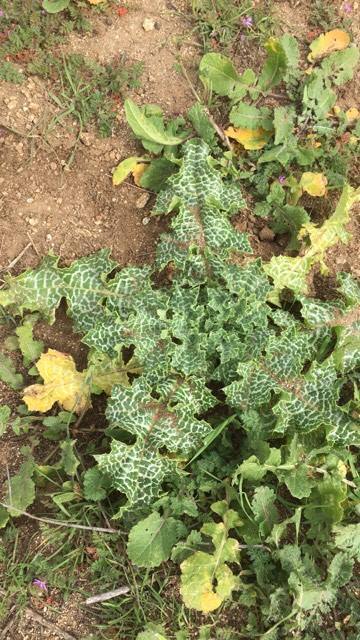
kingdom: Plantae
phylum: Tracheophyta
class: Magnoliopsida
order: Asterales
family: Asteraceae
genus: Silybum
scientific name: Silybum marianum
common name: Milk thistle
